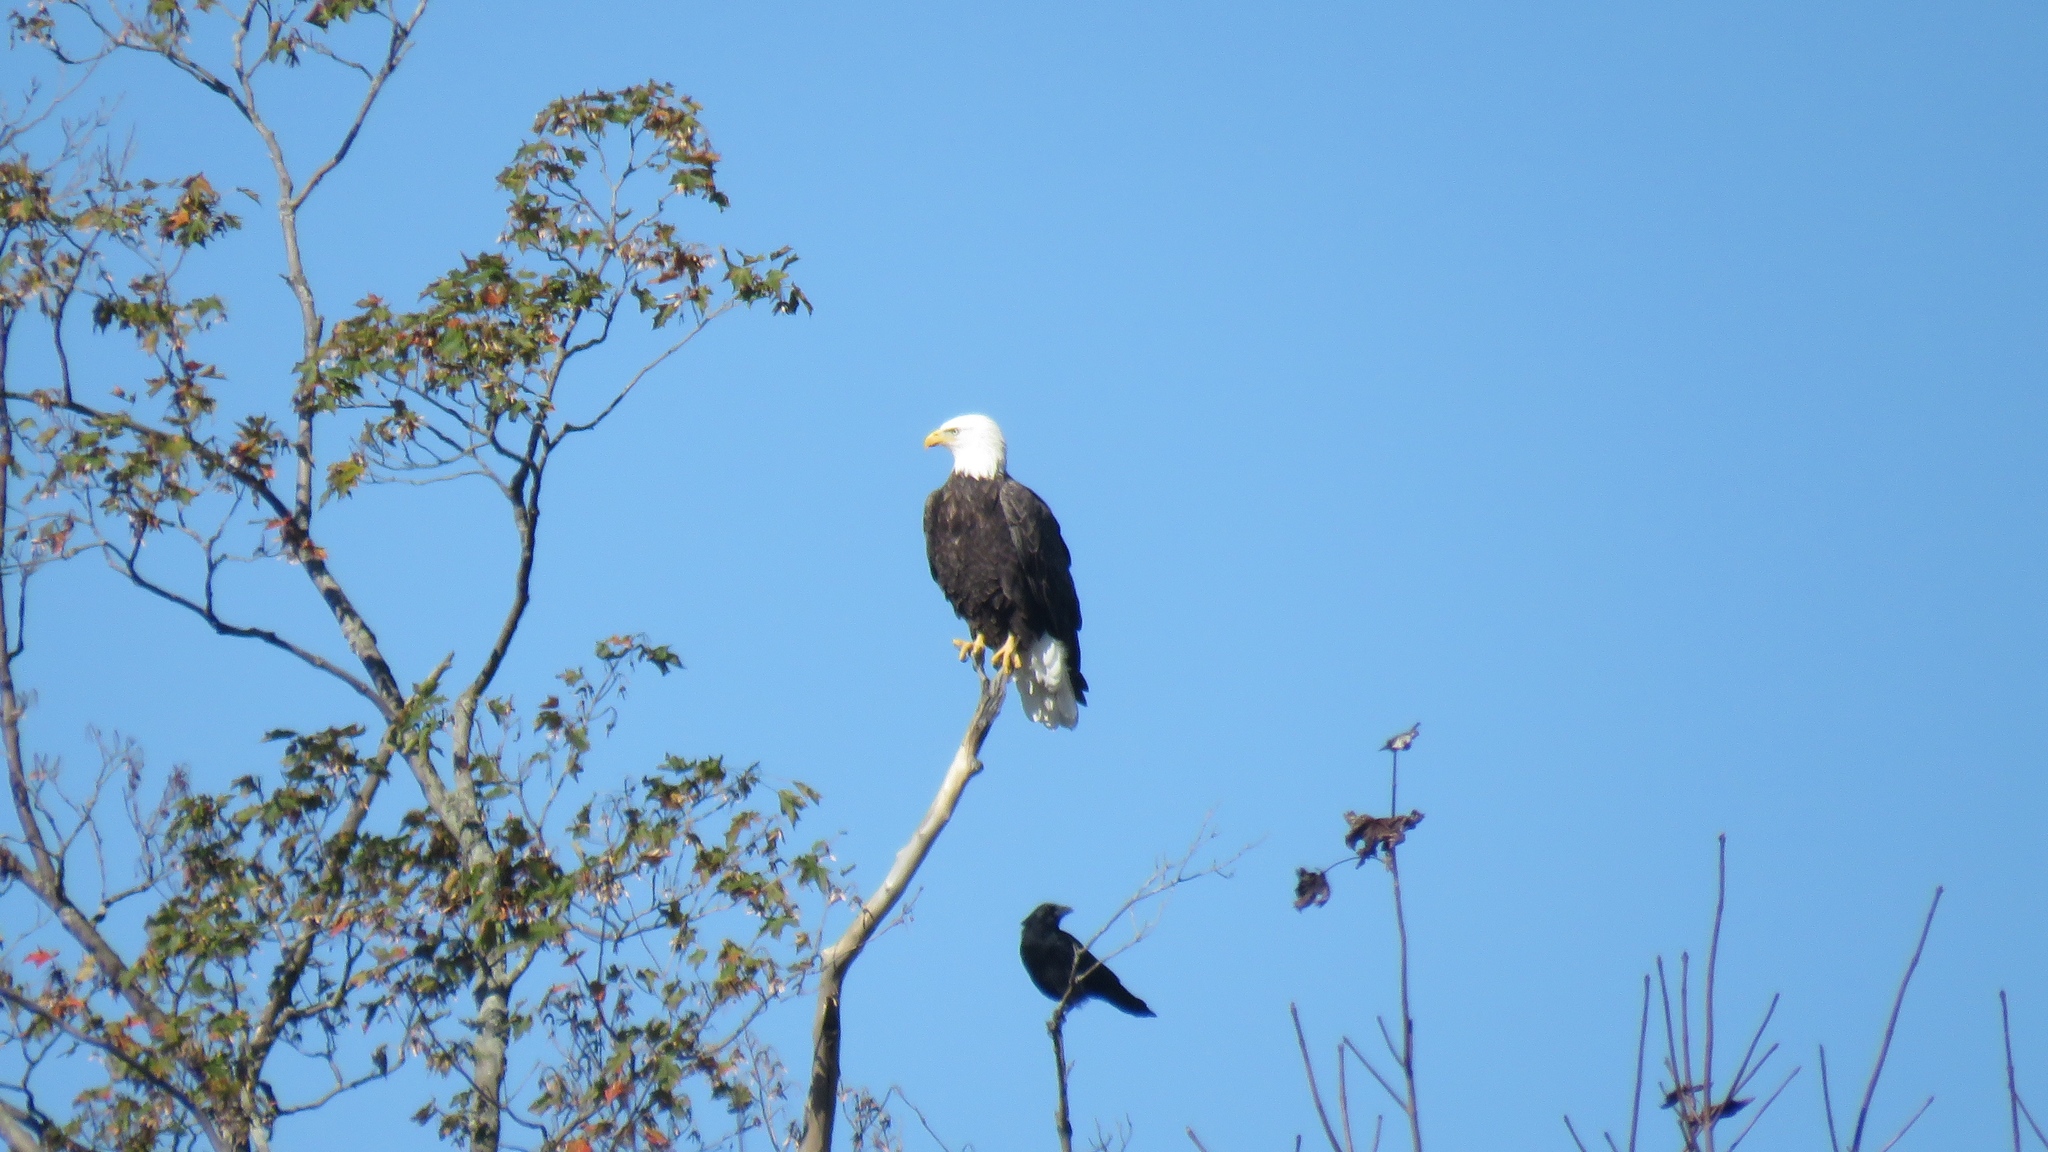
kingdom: Animalia
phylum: Chordata
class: Aves
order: Accipitriformes
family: Accipitridae
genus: Haliaeetus
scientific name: Haliaeetus leucocephalus
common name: Bald eagle
